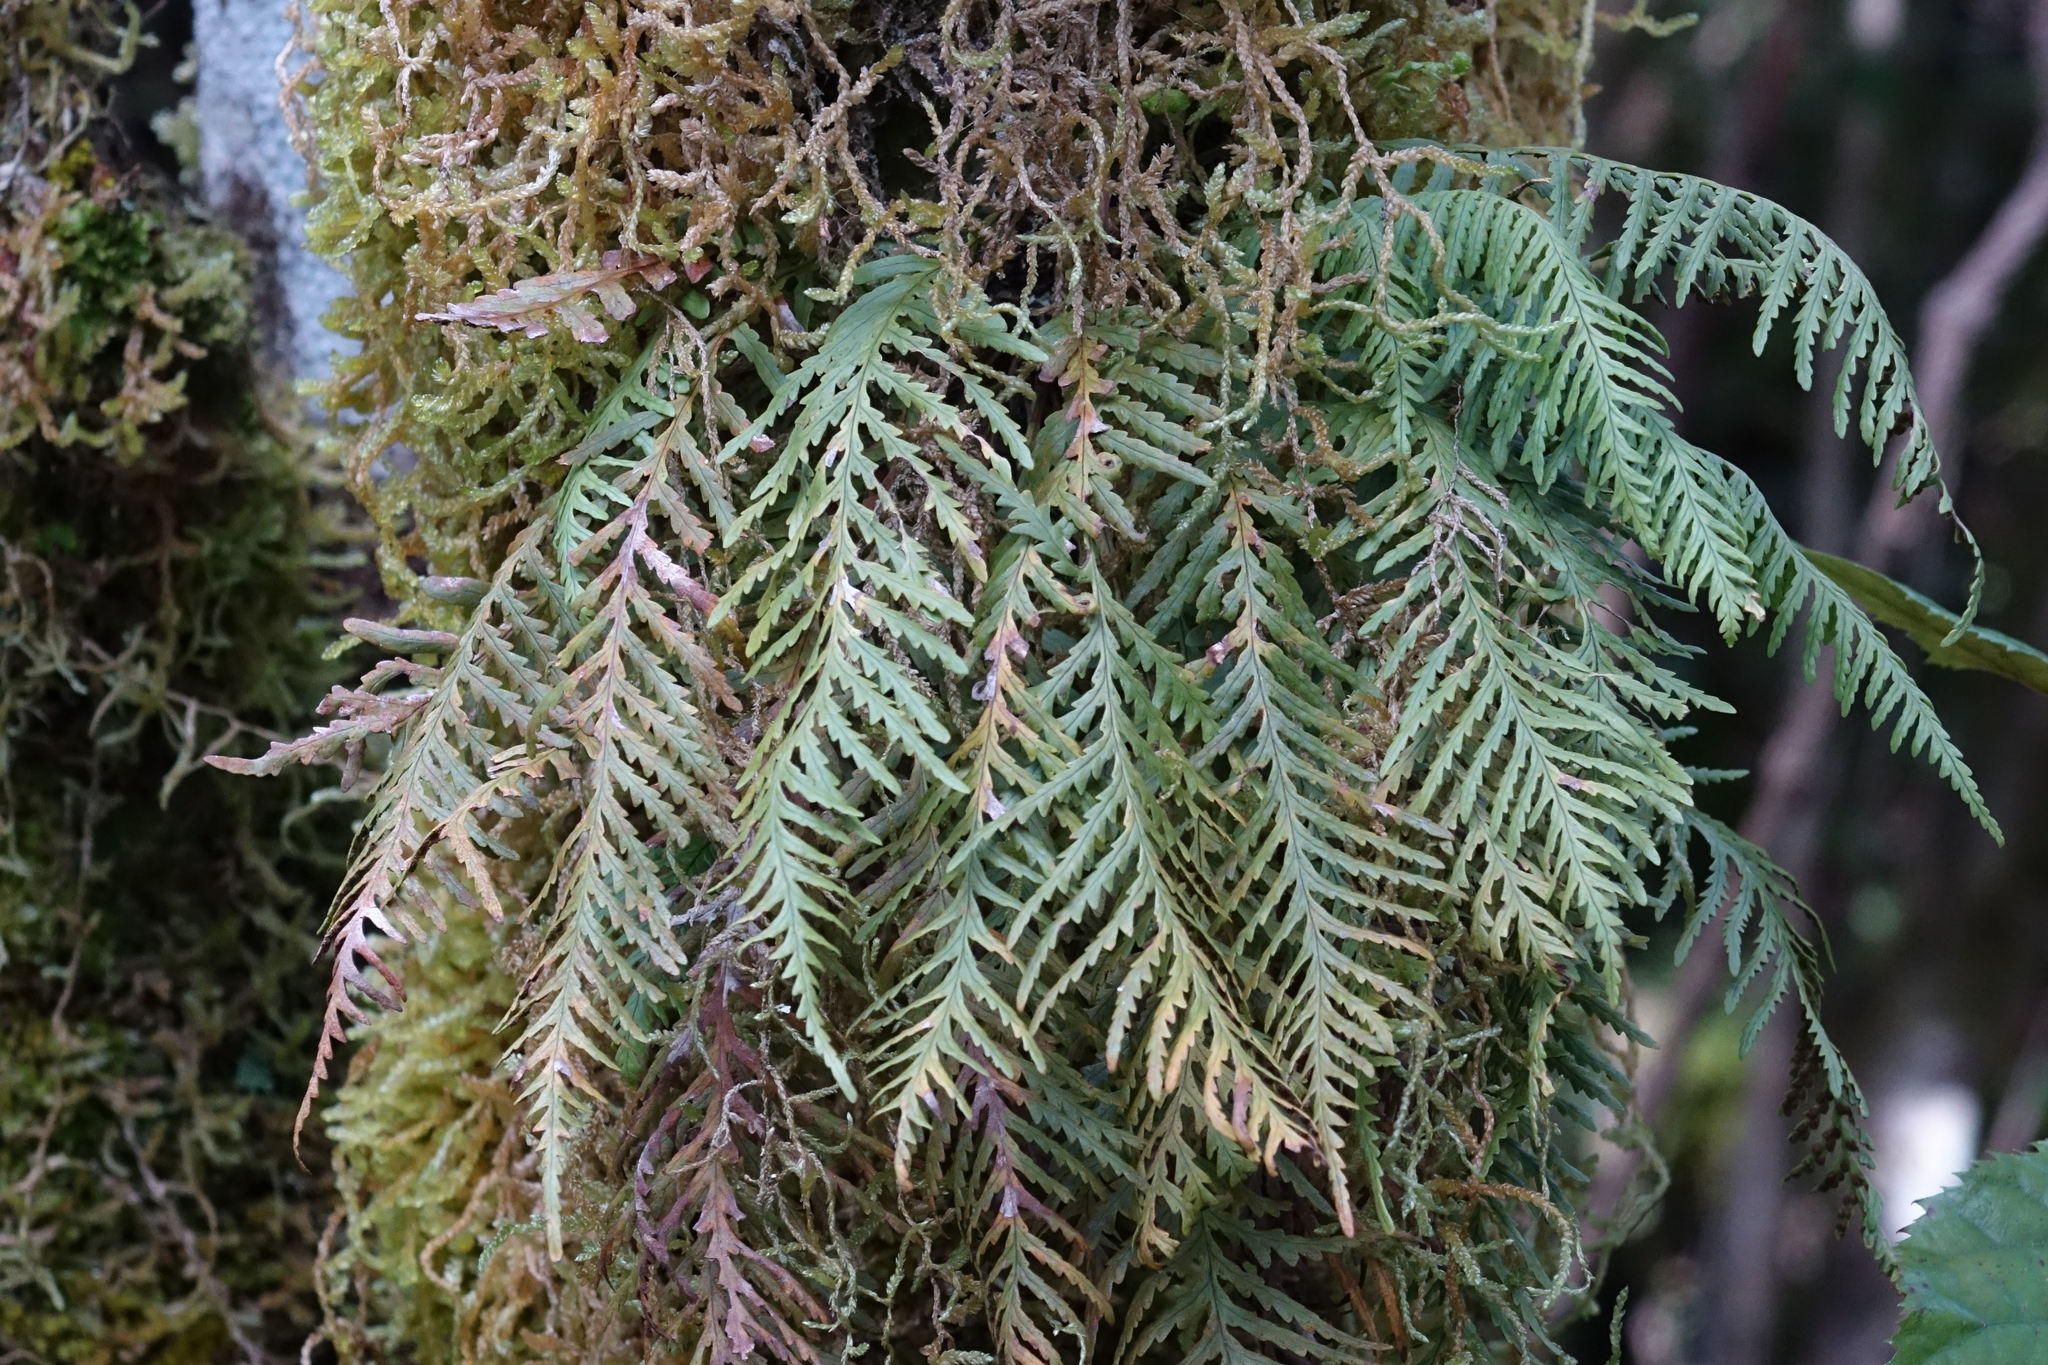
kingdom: Plantae
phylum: Tracheophyta
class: Polypodiopsida
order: Polypodiales
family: Polypodiaceae
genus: Notogrammitis
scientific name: Notogrammitis heterophylla
